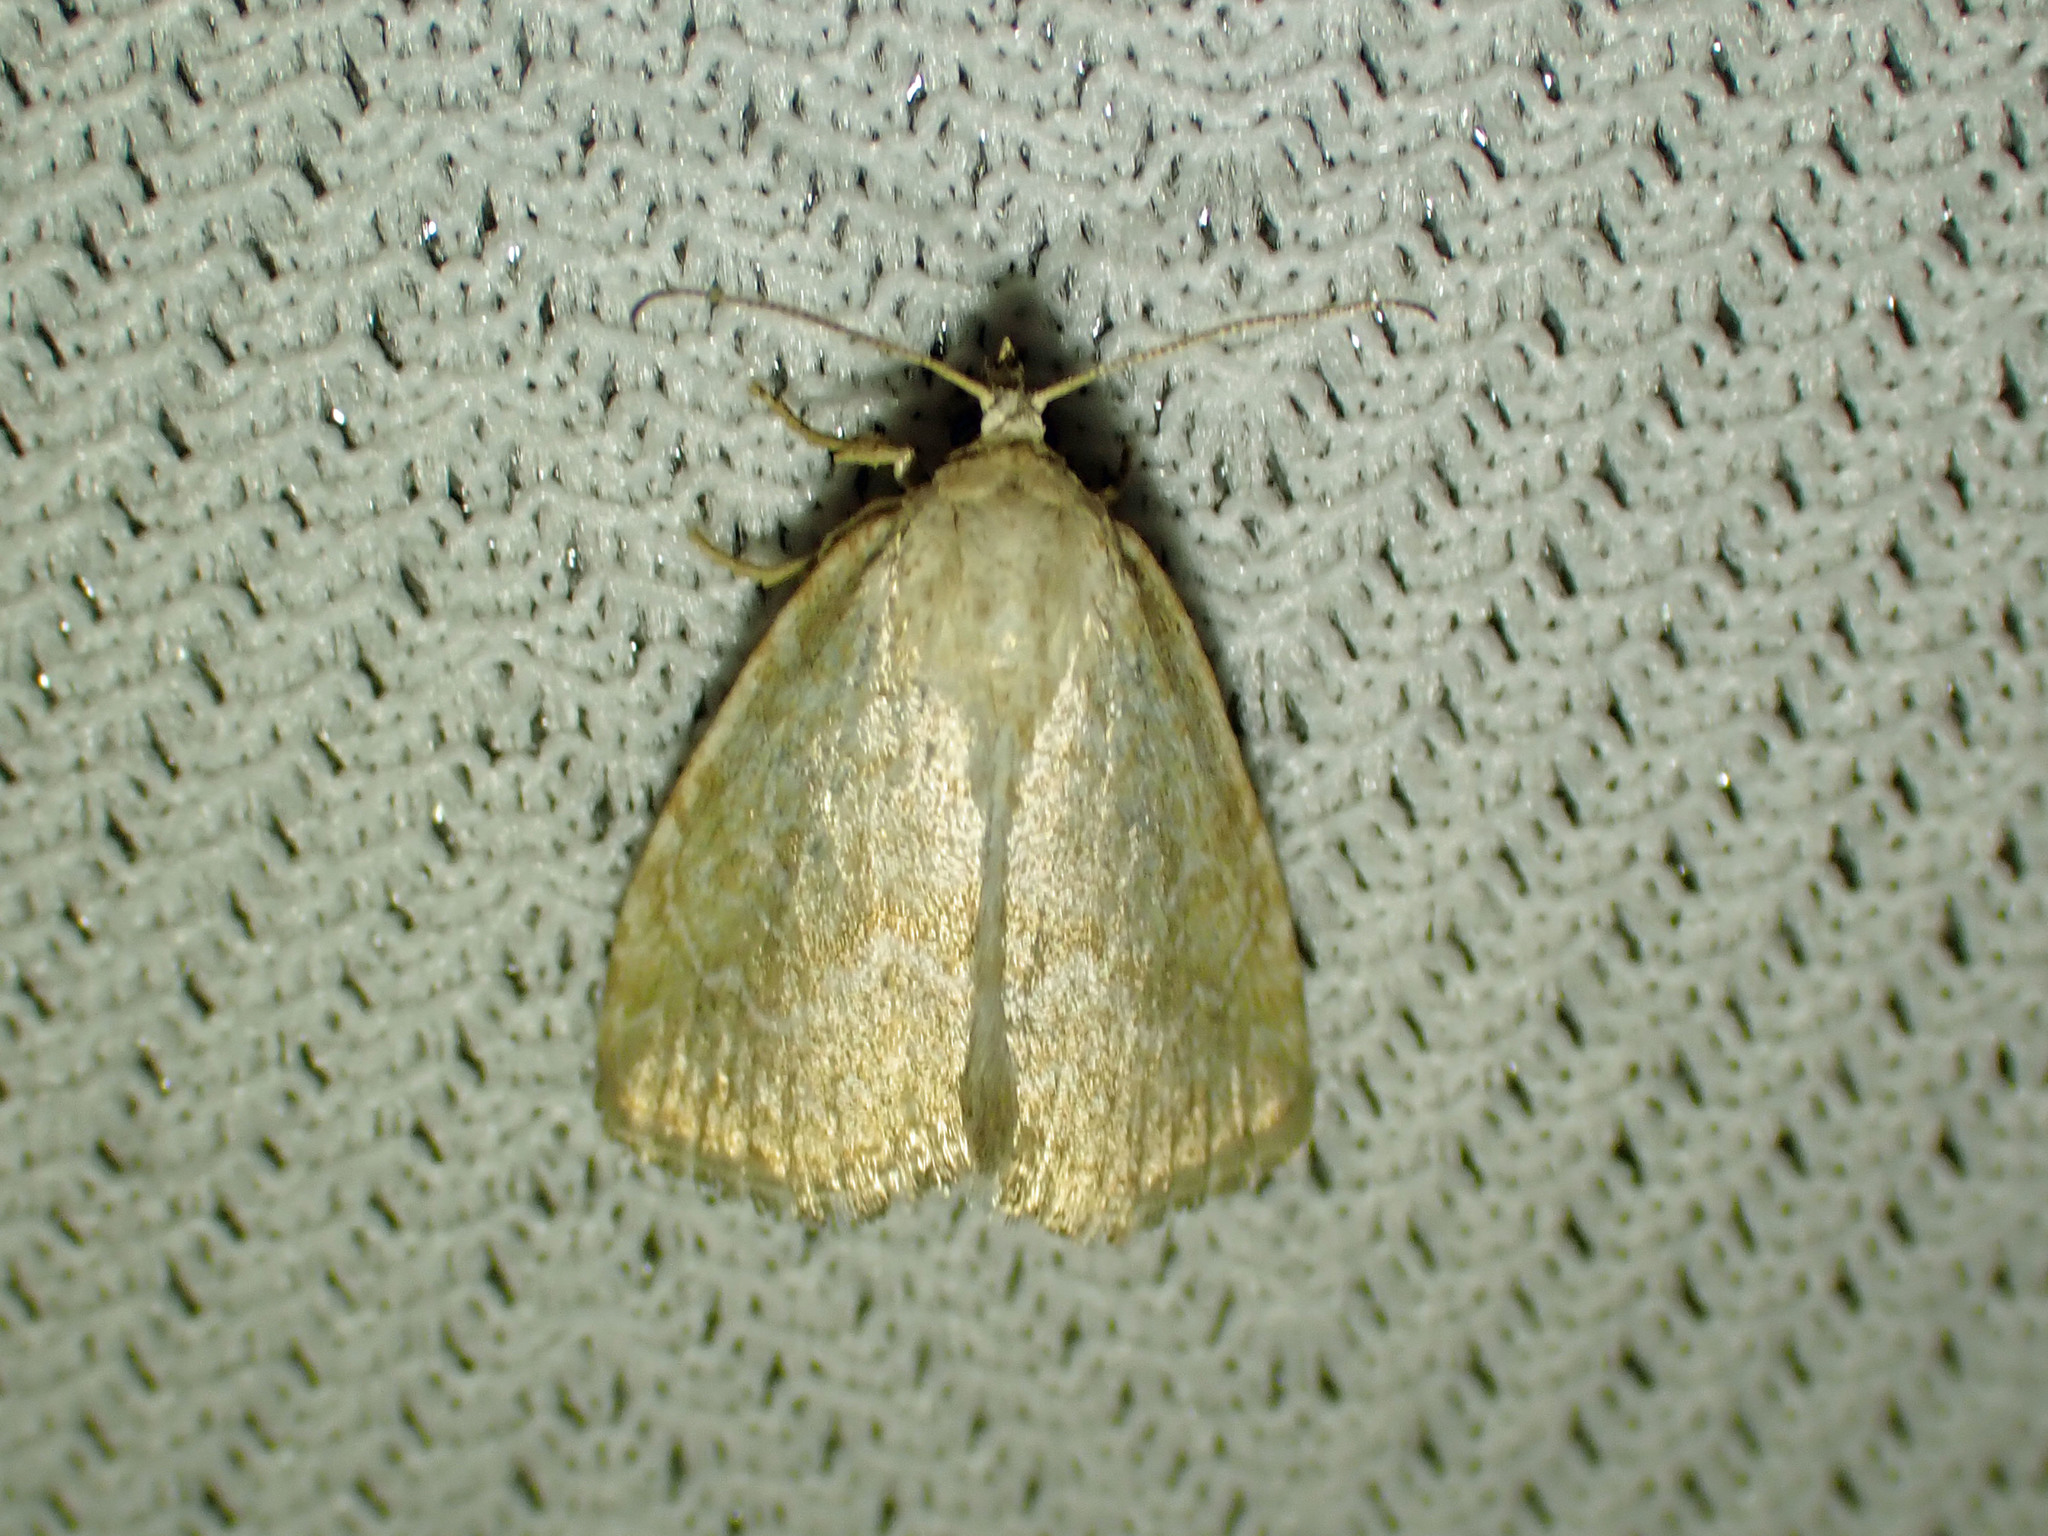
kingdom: Animalia
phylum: Arthropoda
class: Insecta
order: Lepidoptera
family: Noctuidae
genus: Protodeltote
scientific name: Protodeltote albidula
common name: Pale glyph
